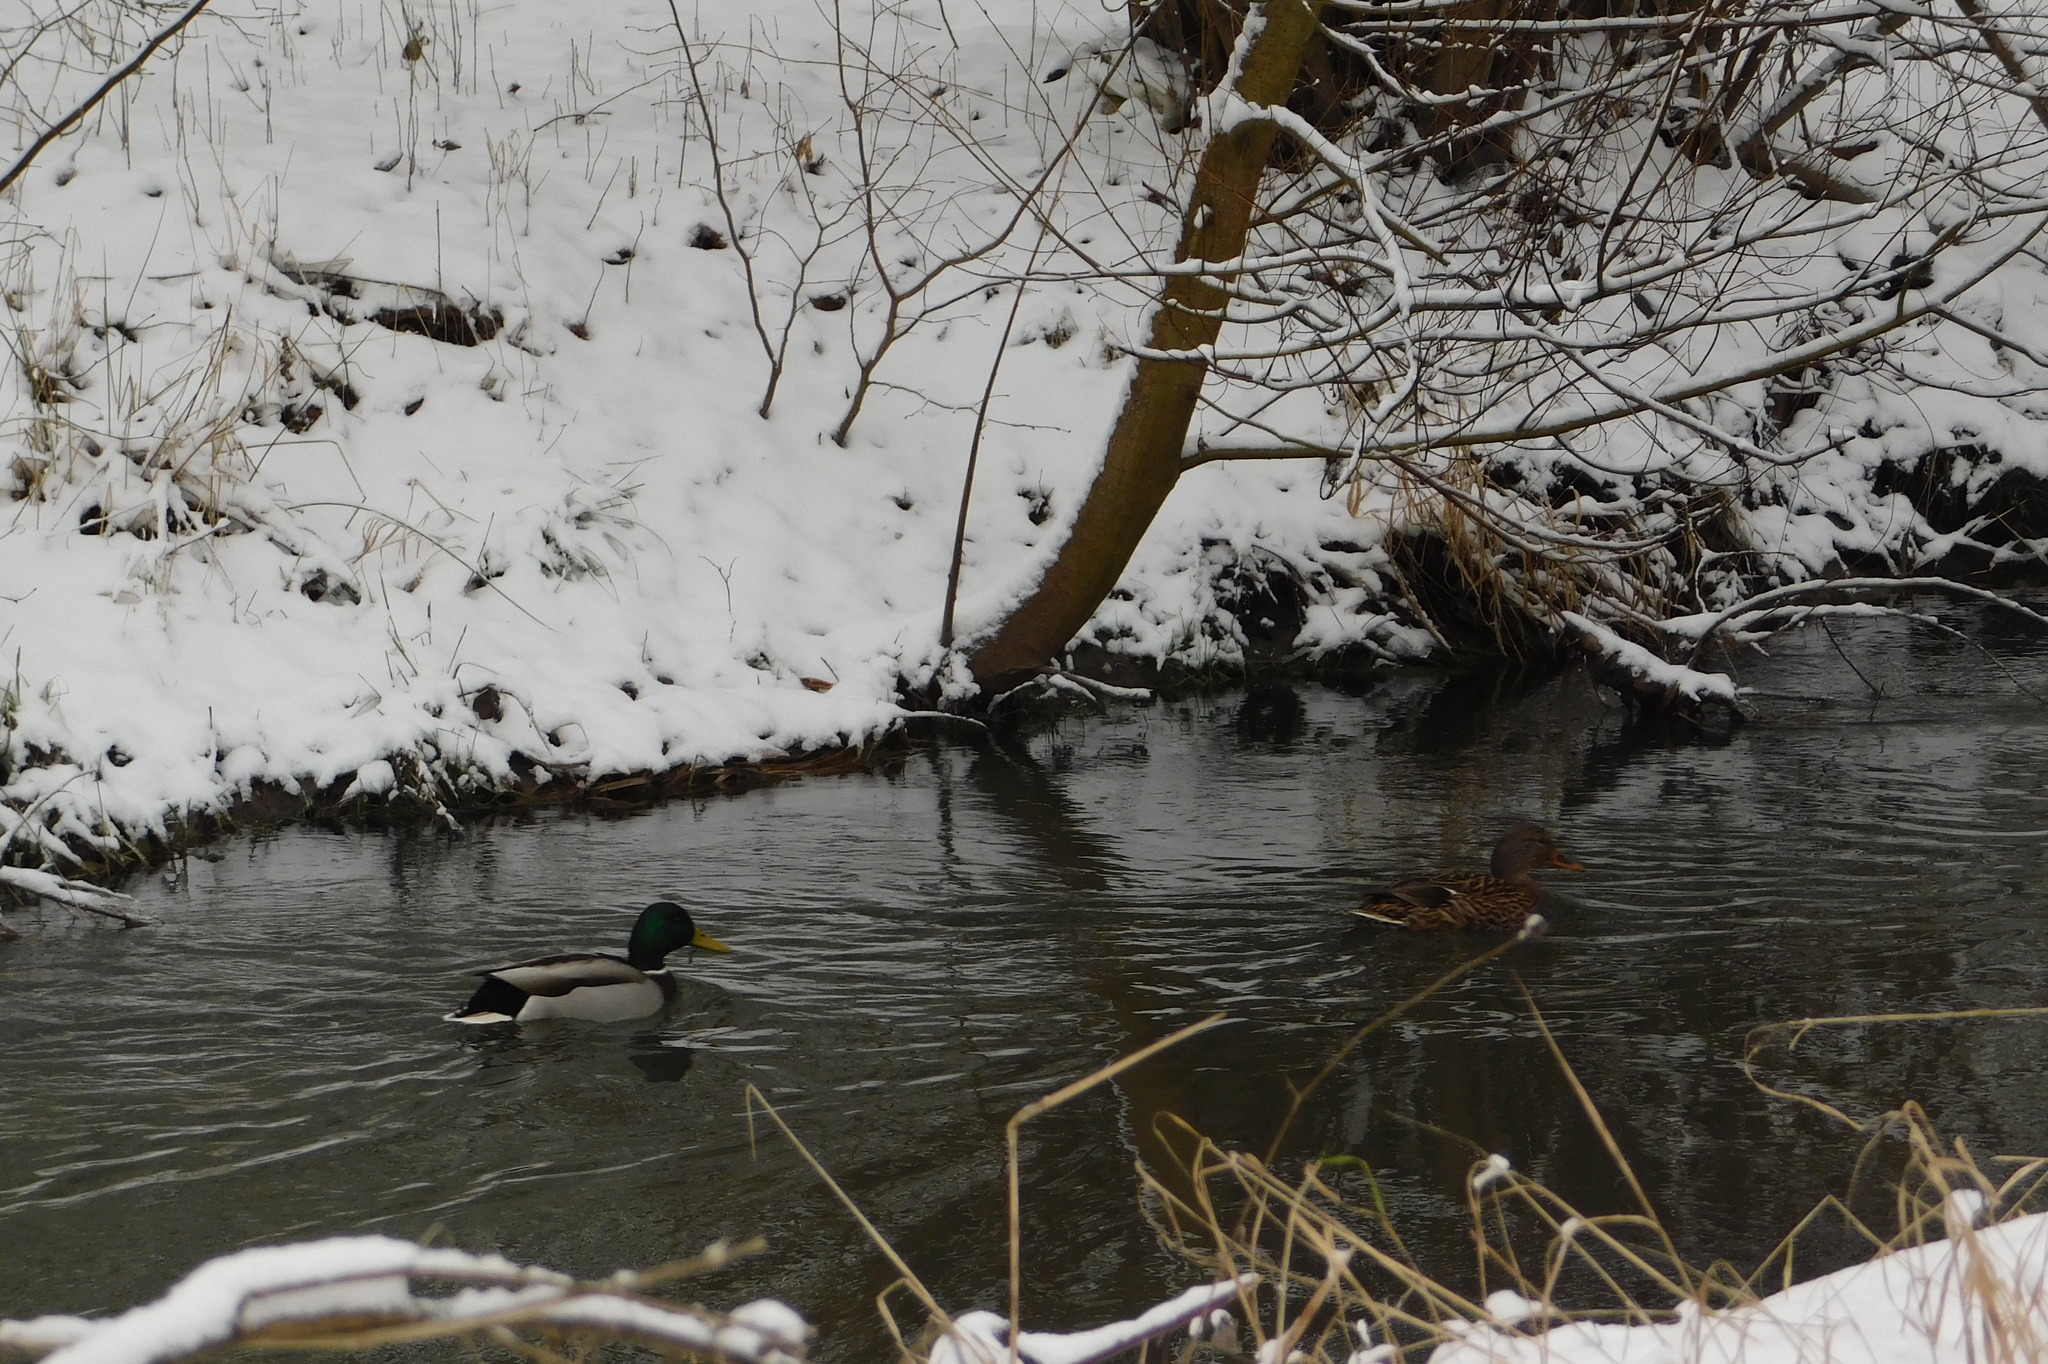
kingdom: Animalia
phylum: Chordata
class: Aves
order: Anseriformes
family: Anatidae
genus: Anas
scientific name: Anas platyrhynchos
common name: Mallard
